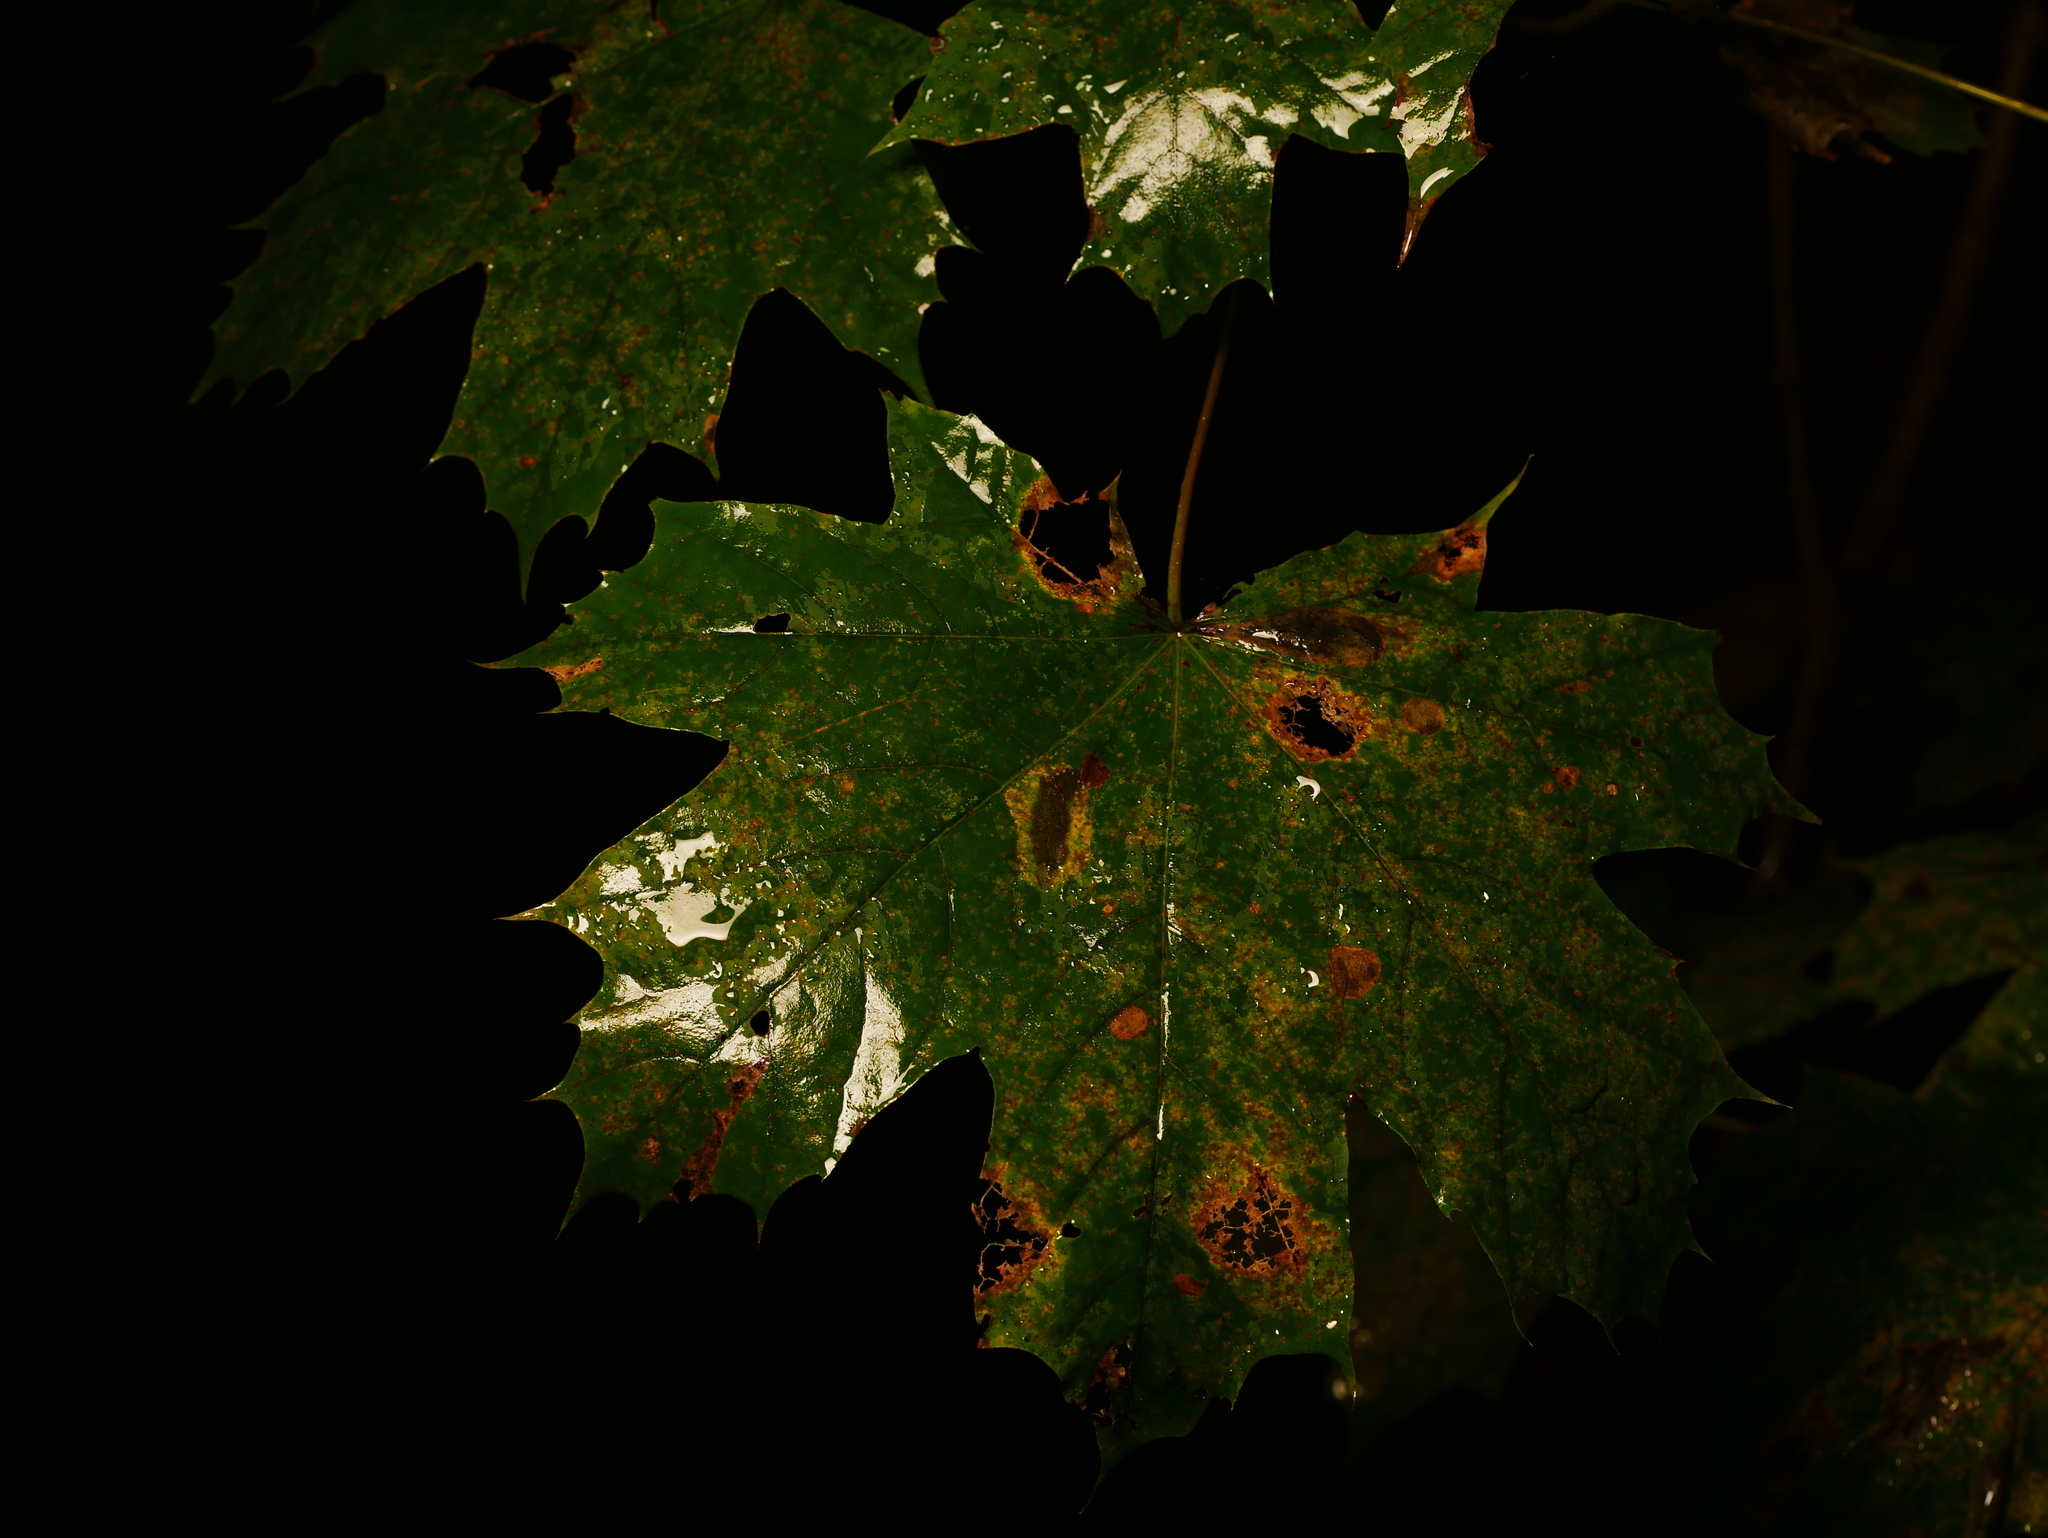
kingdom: Plantae
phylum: Tracheophyta
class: Magnoliopsida
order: Sapindales
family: Sapindaceae
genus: Acer
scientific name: Acer platanoides
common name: Norway maple
